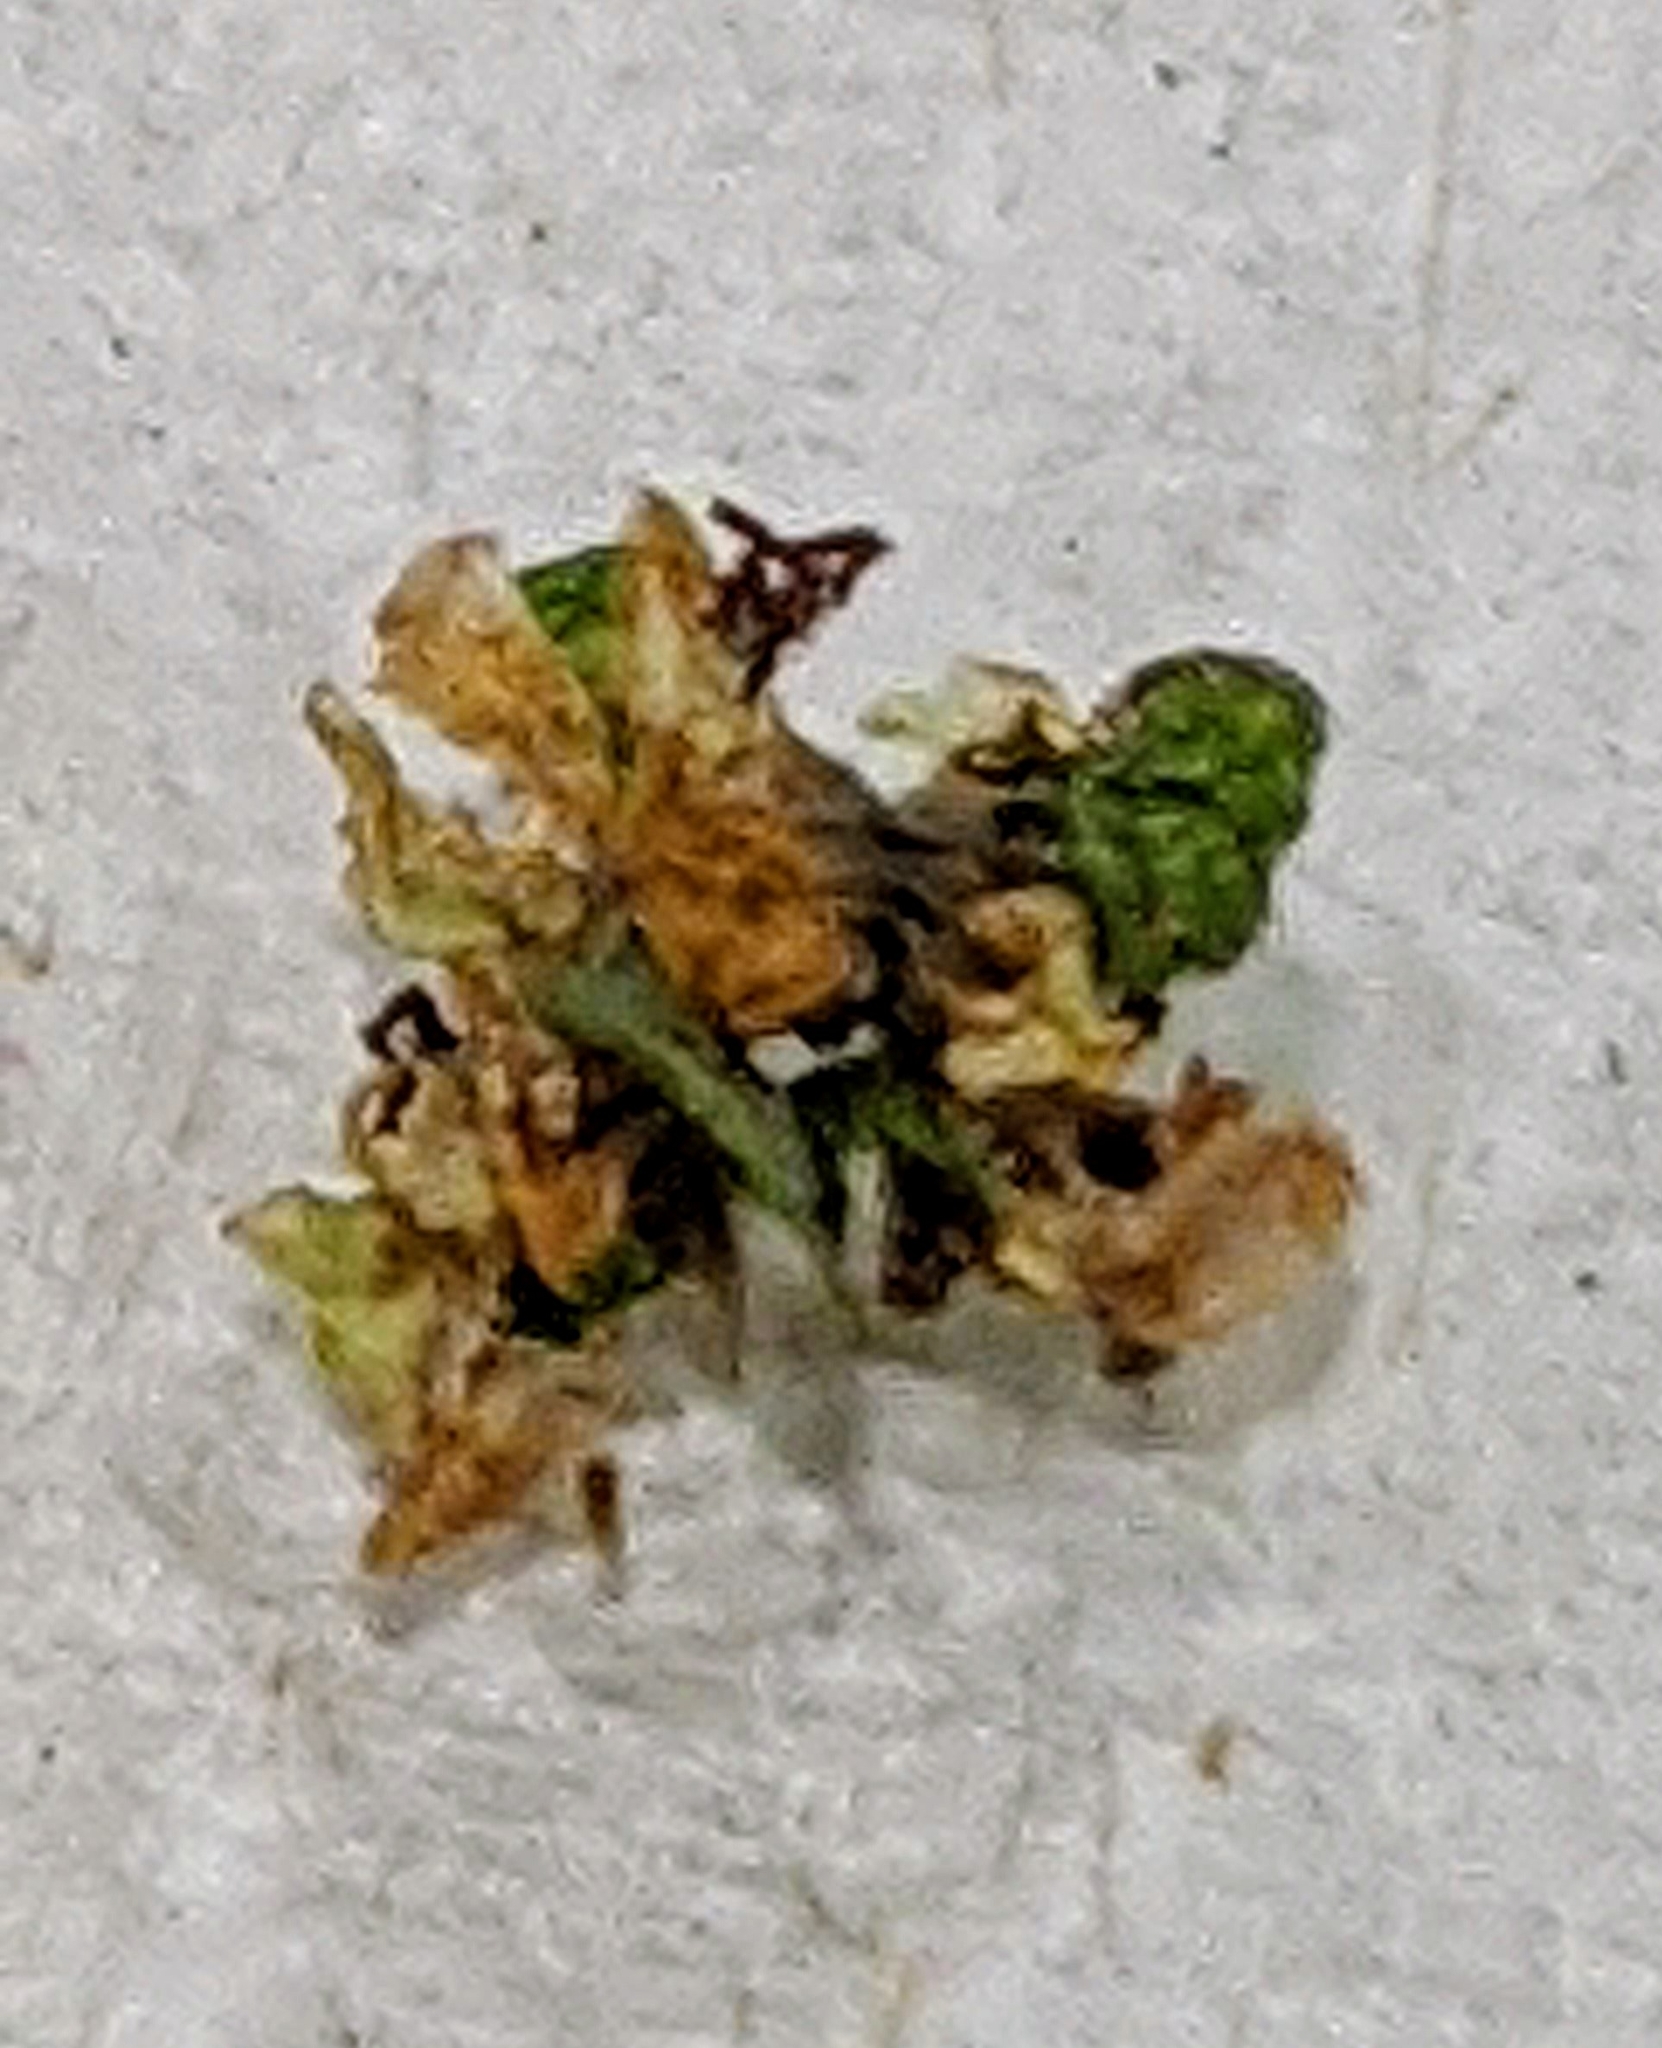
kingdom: Animalia
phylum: Arthropoda
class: Insecta
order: Lepidoptera
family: Geometridae
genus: Synchlora
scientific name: Synchlora
